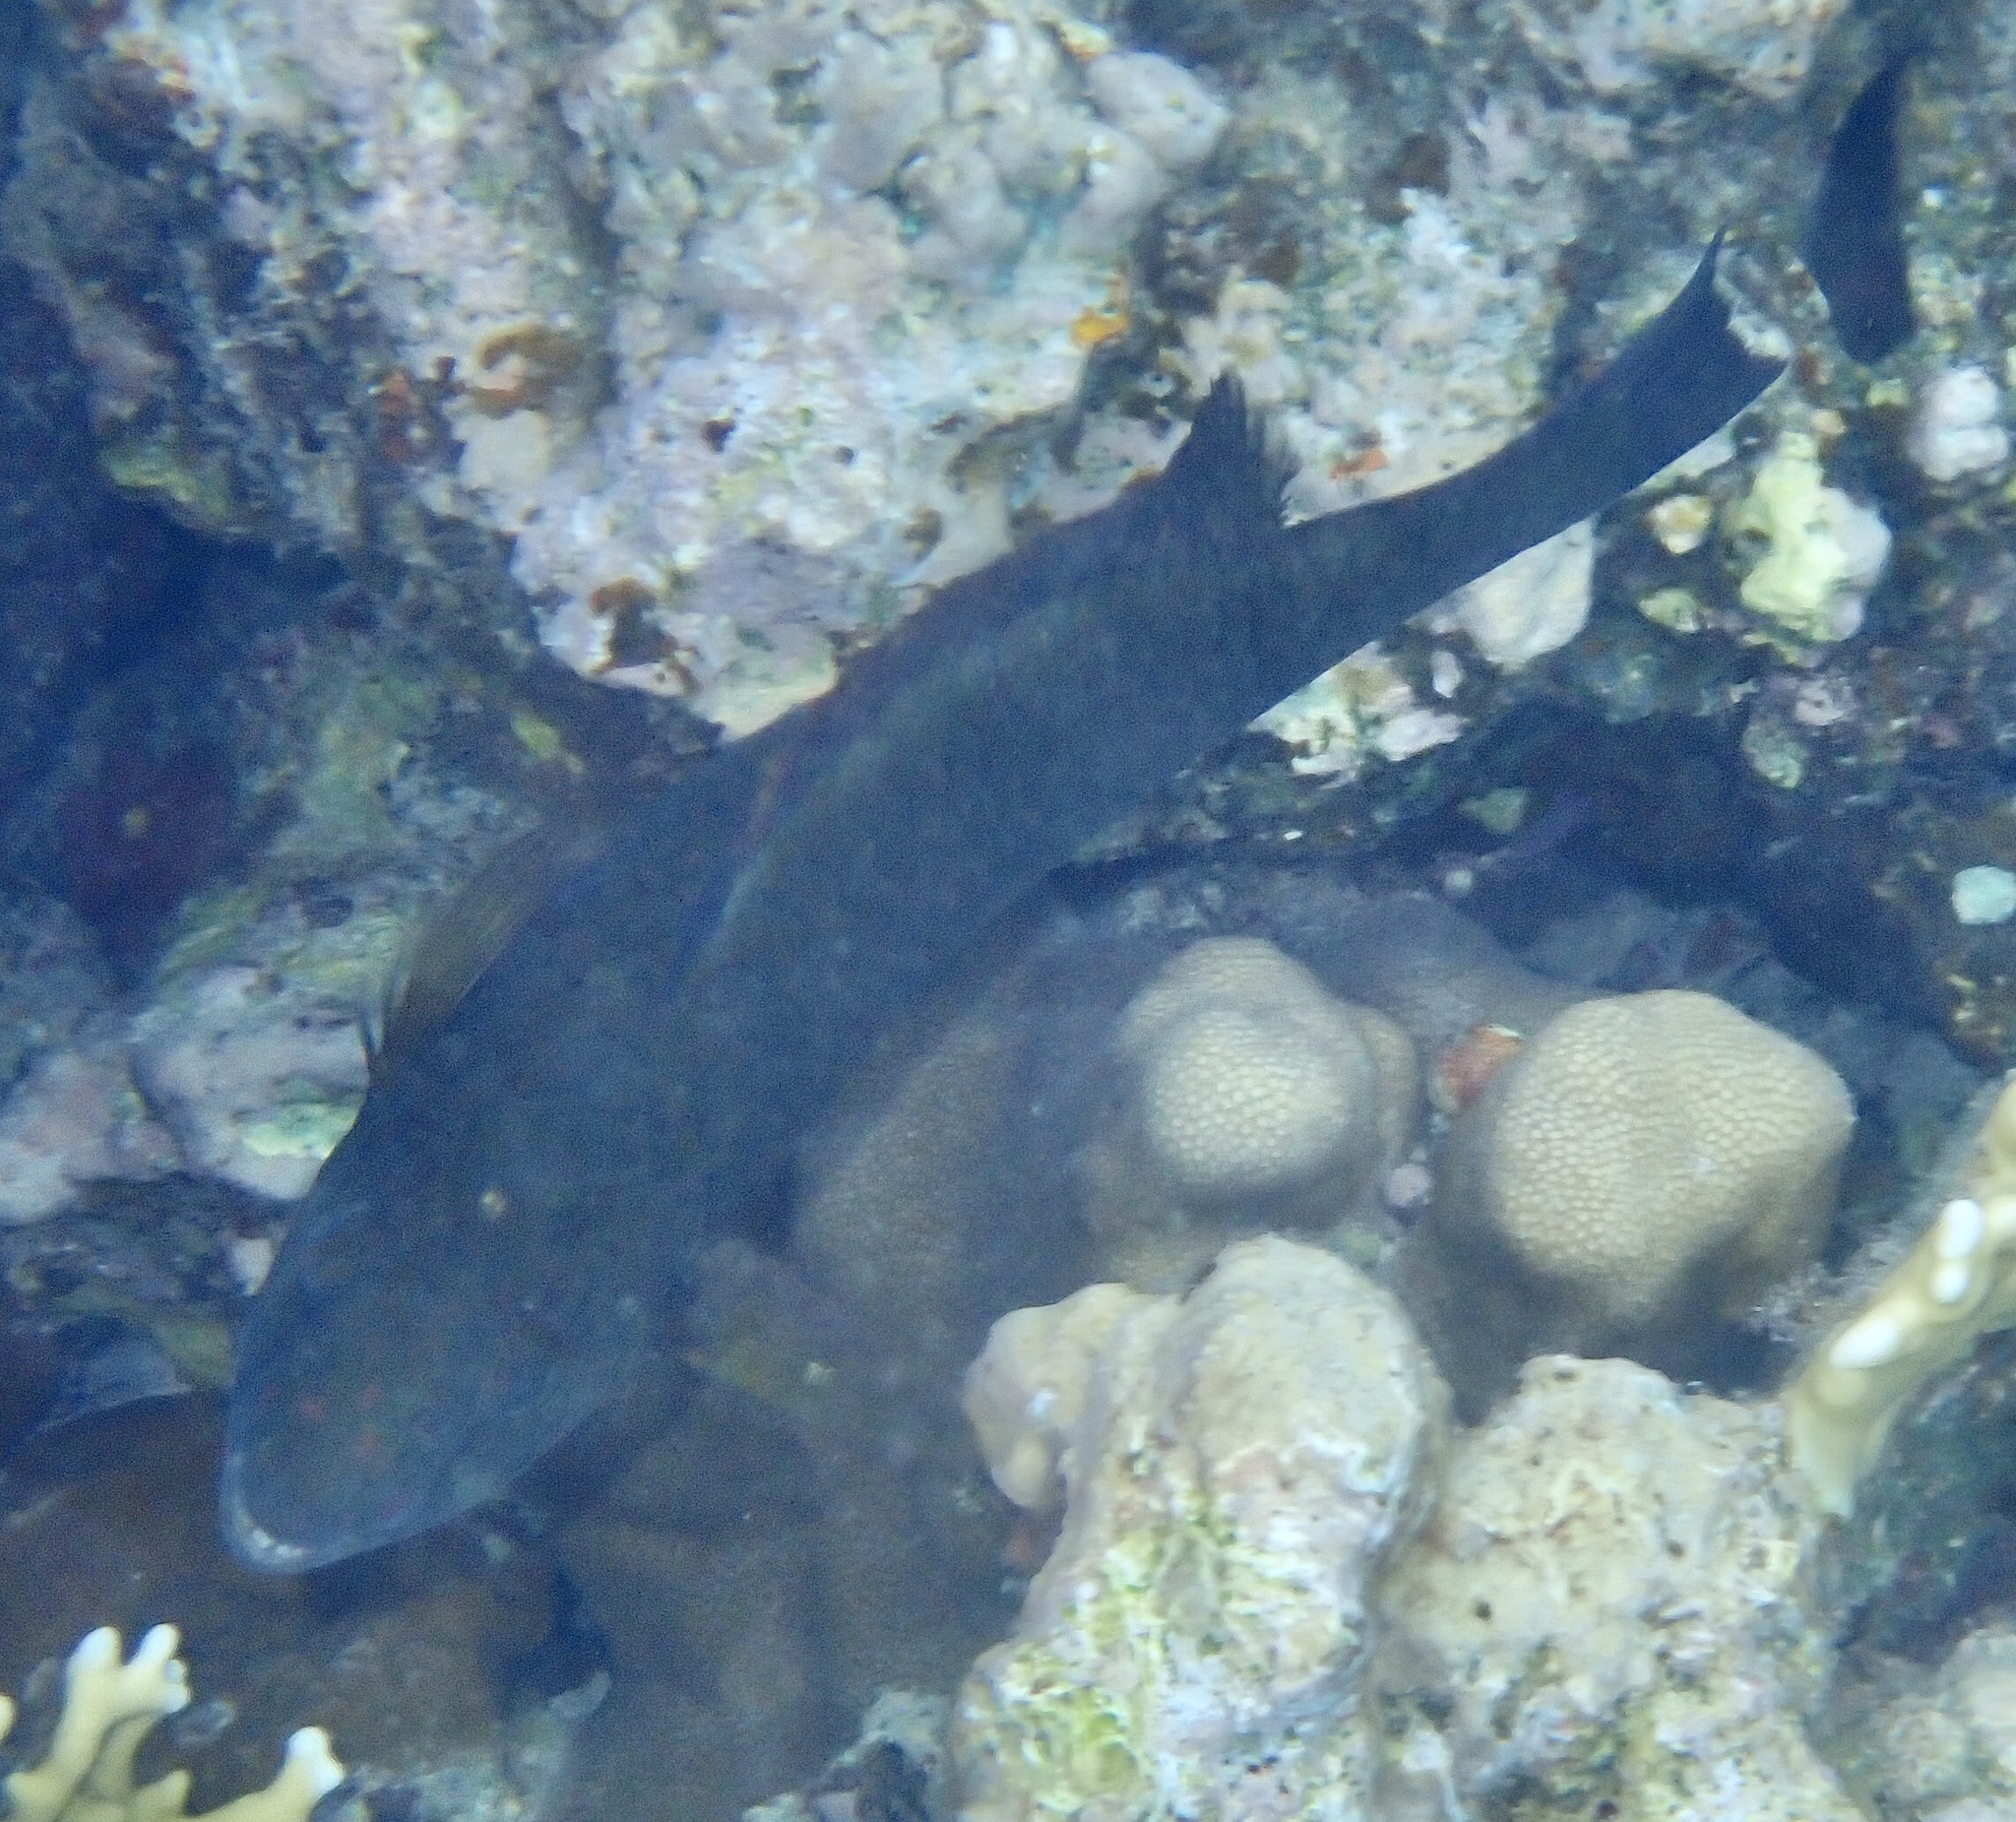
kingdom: Animalia
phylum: Chordata
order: Perciformes
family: Scaridae
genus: Calotomus
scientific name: Calotomus viridescens
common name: Dotted parrotfish
